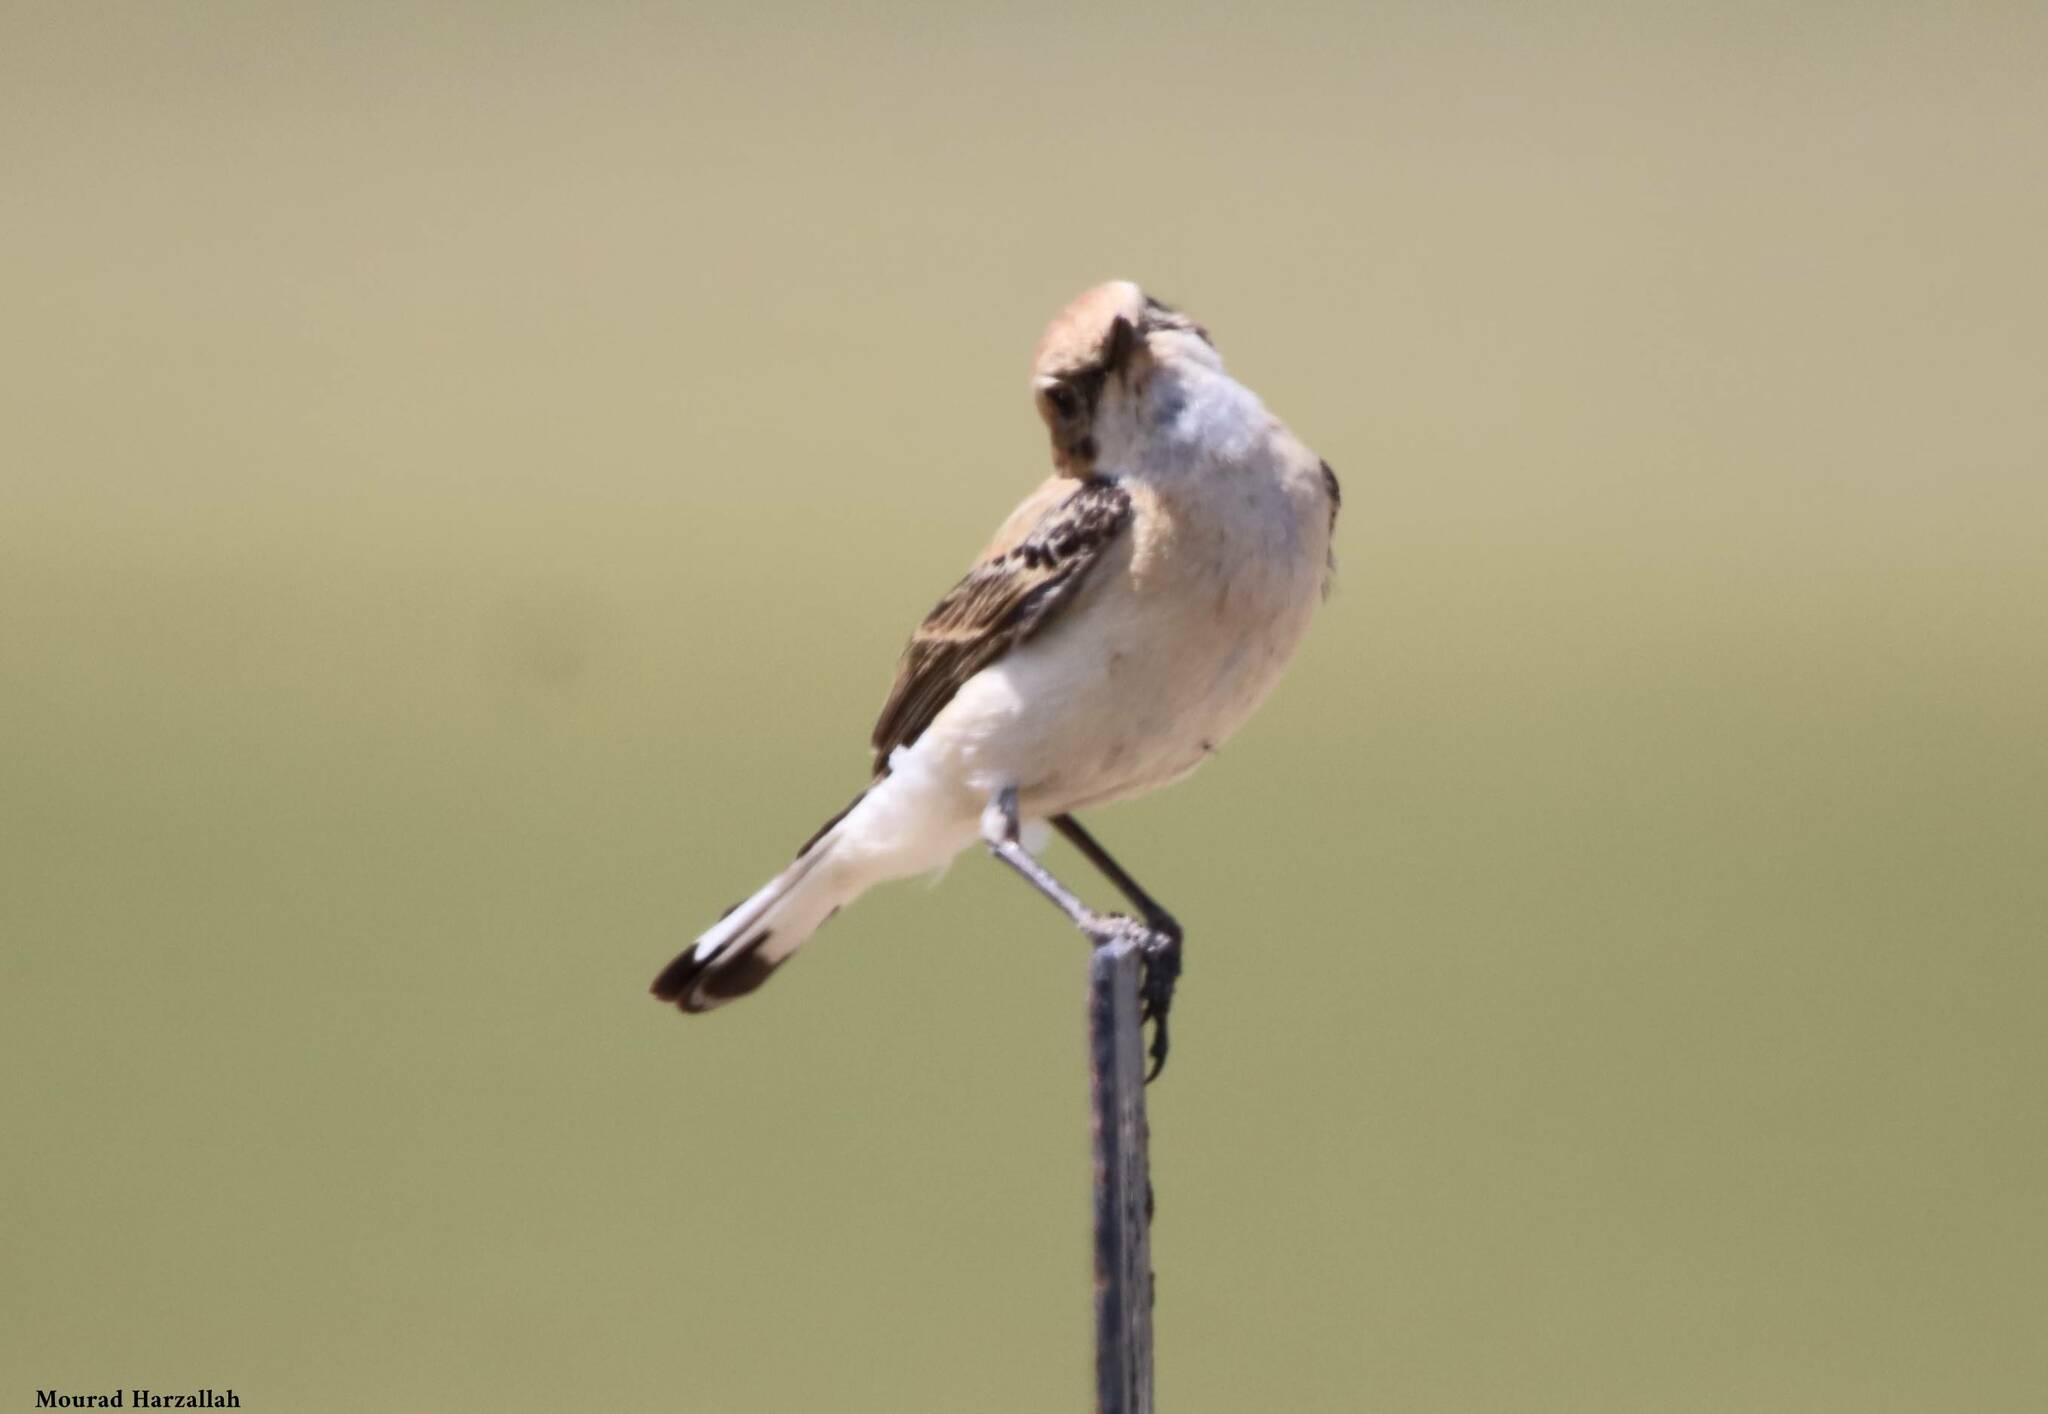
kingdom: Animalia
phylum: Chordata
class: Aves
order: Passeriformes
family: Muscicapidae
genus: Oenanthe
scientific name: Oenanthe hispanica
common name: Black-eared wheatear
